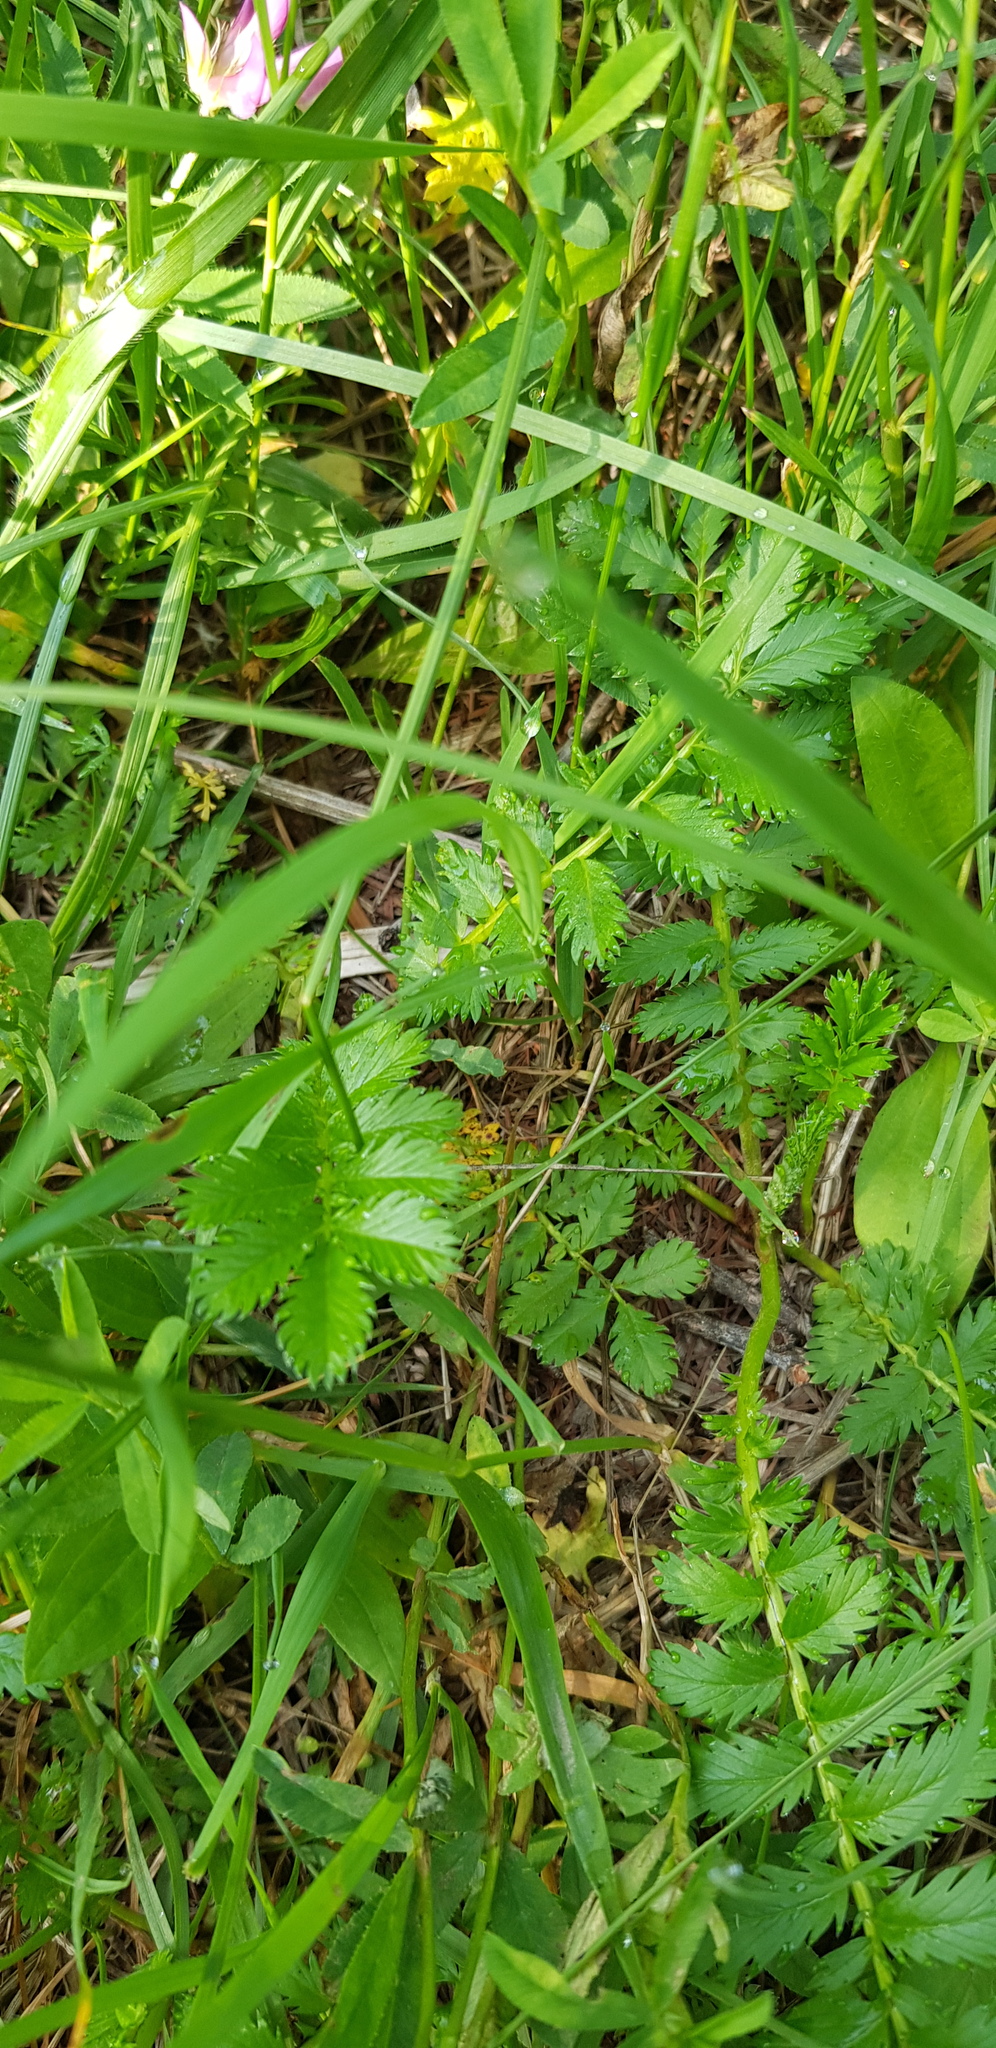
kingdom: Plantae
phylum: Tracheophyta
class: Magnoliopsida
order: Rosales
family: Rosaceae
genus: Argentina
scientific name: Argentina anserina
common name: Common silverweed
